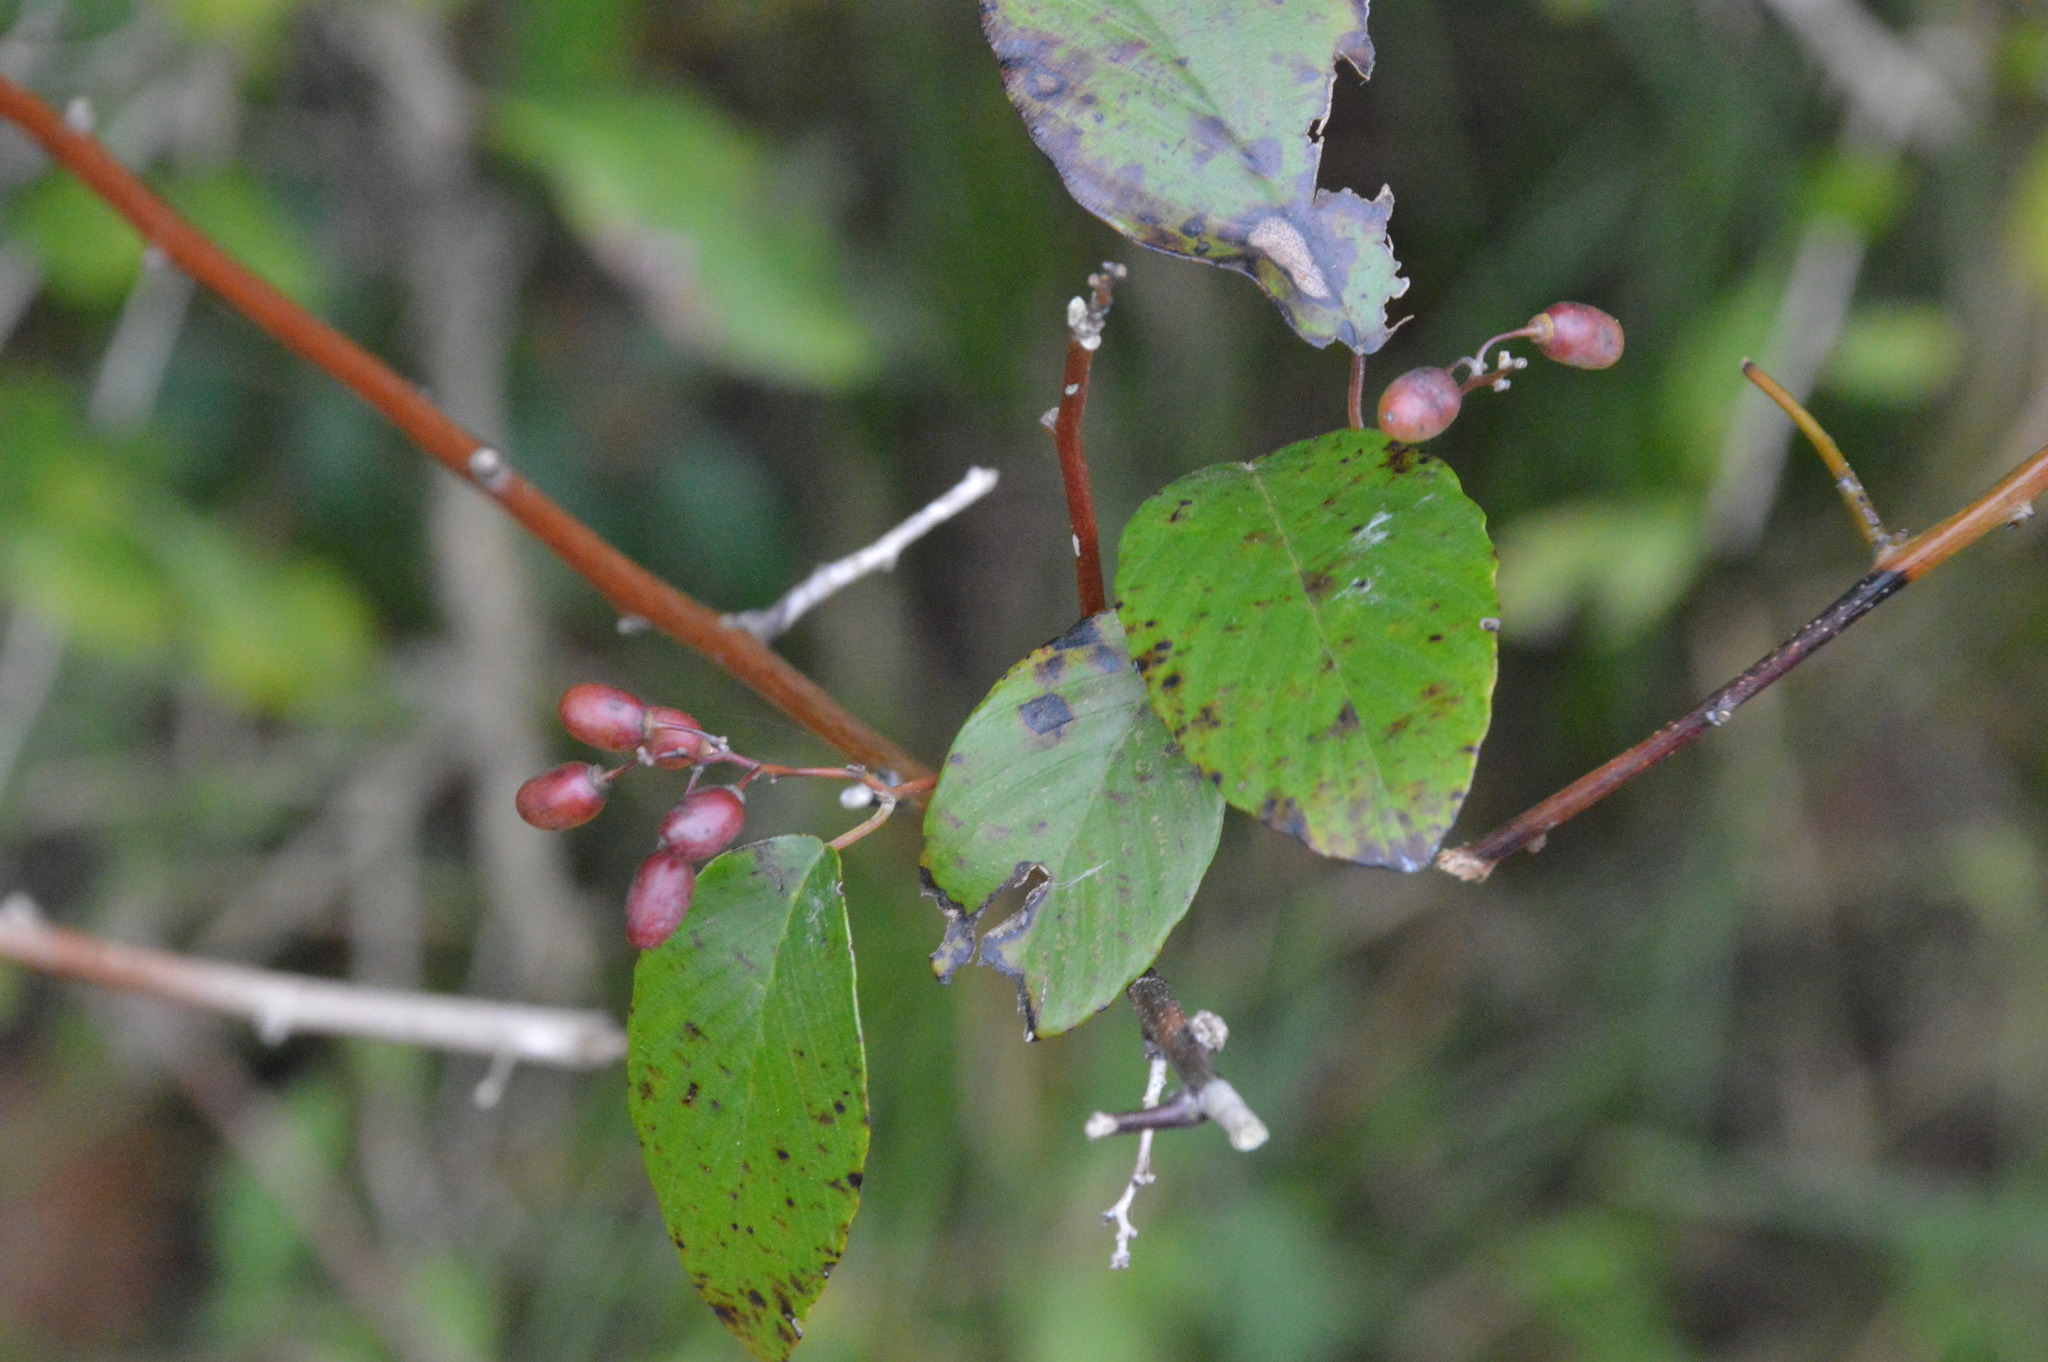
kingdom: Plantae
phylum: Tracheophyta
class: Magnoliopsida
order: Rosales
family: Rhamnaceae
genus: Berchemia
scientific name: Berchemia scandens
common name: Supplejack
